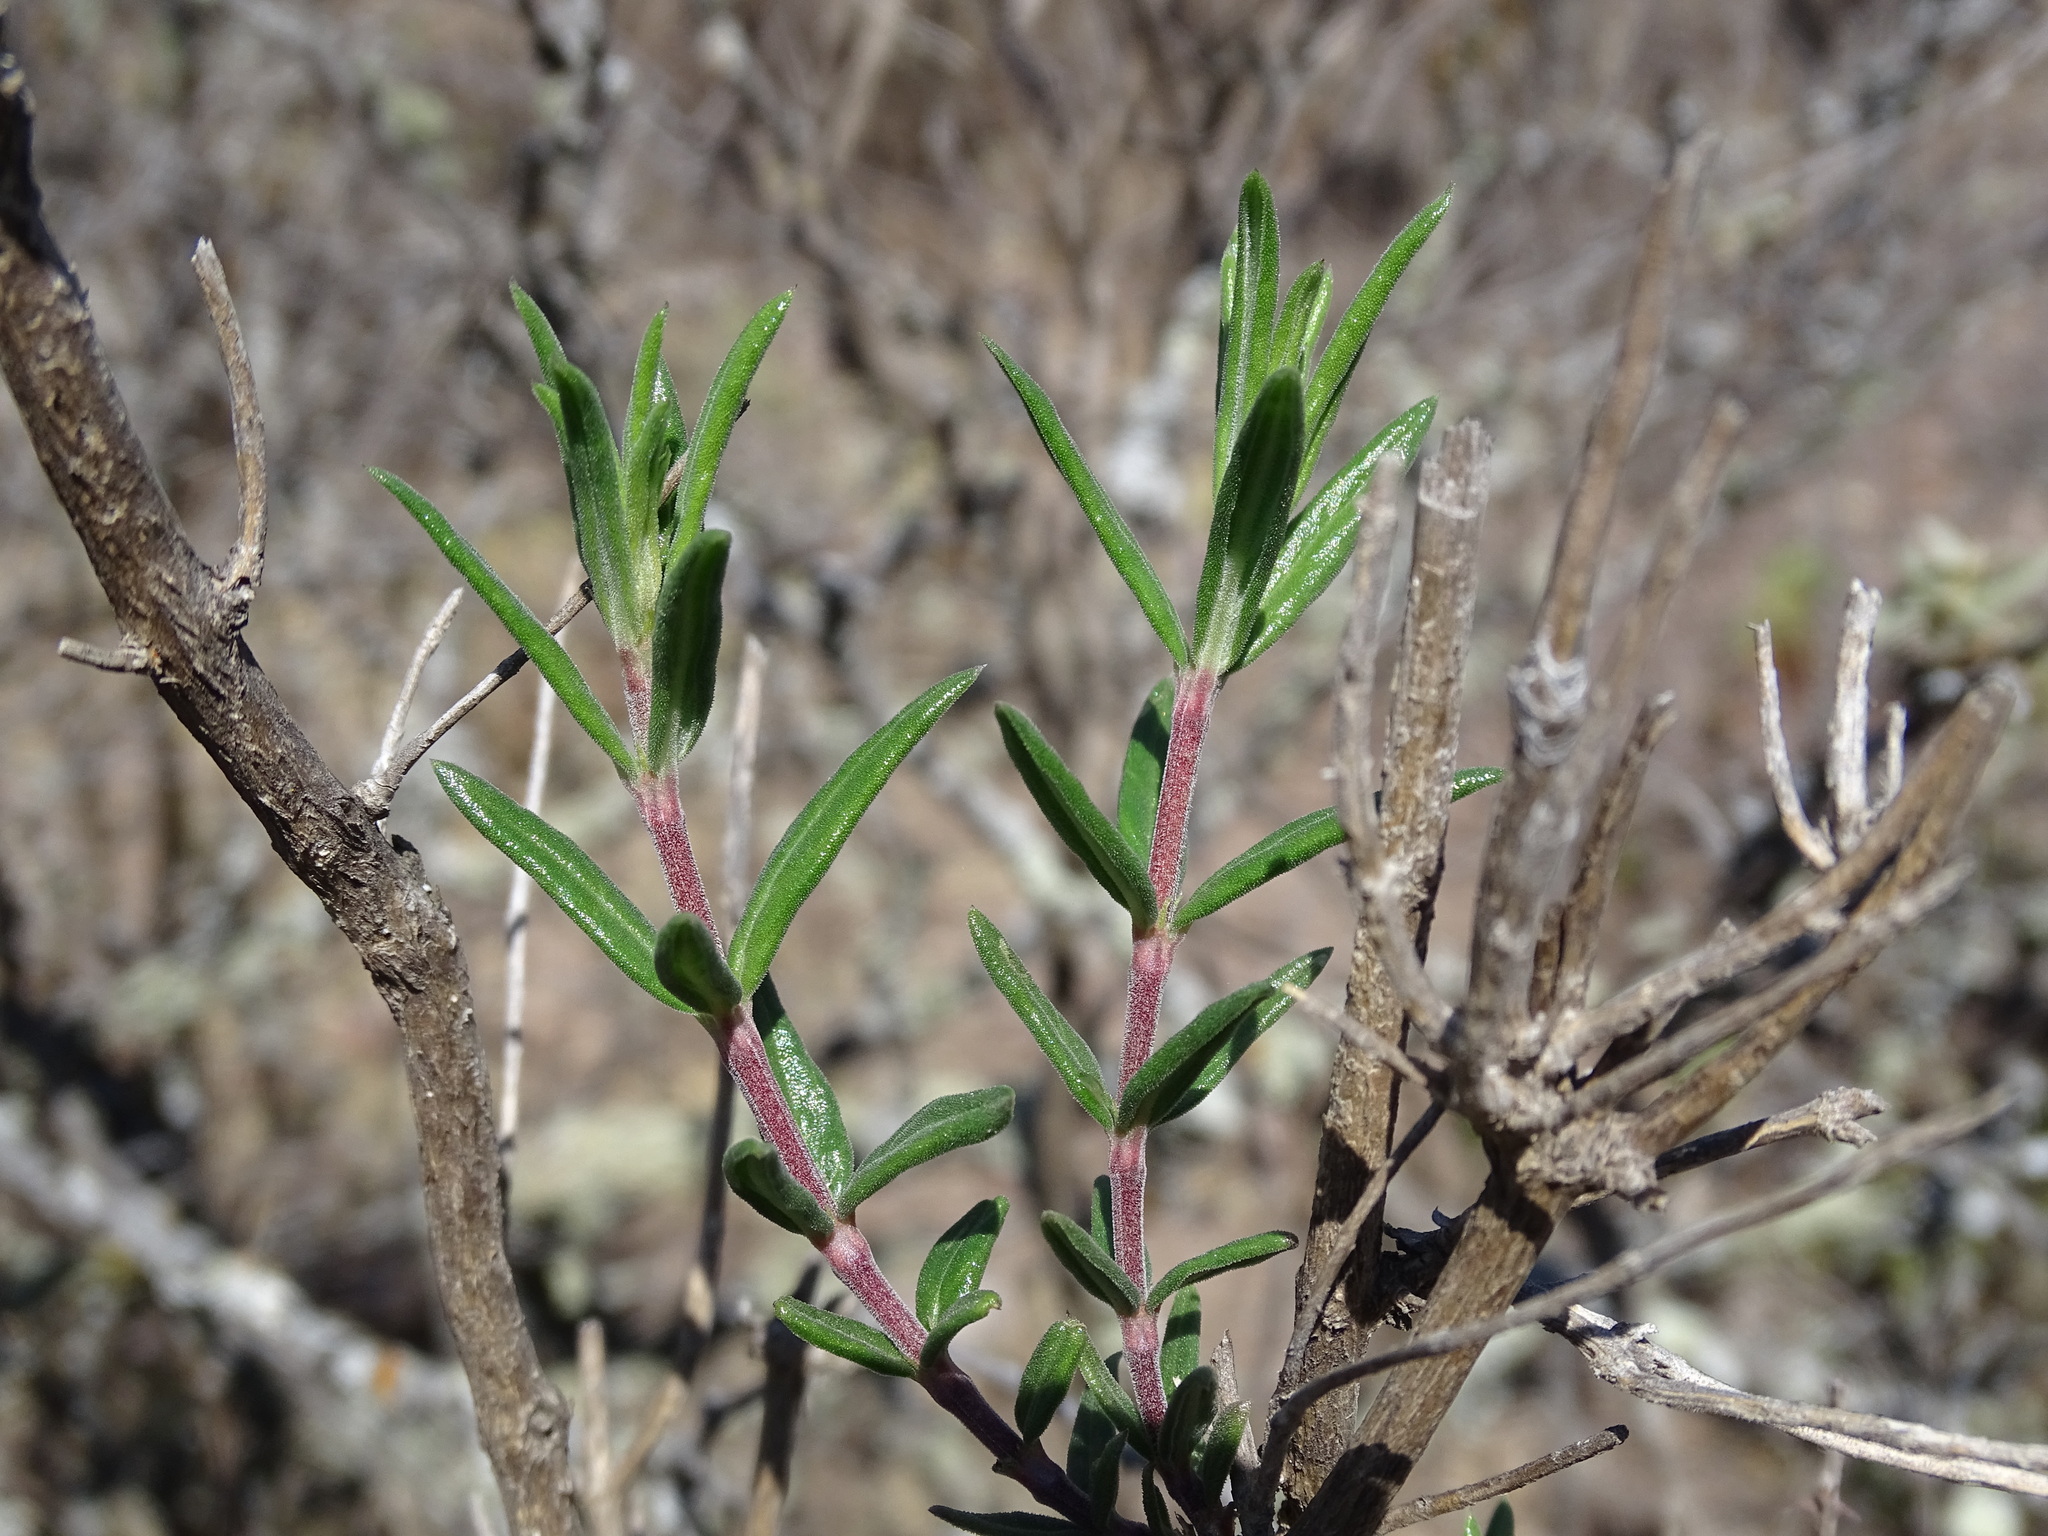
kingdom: Plantae
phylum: Tracheophyta
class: Magnoliopsida
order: Gentianales
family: Rubiaceae
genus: Bouvardia
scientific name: Bouvardia ternifolia
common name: Scarlet bouvardia
